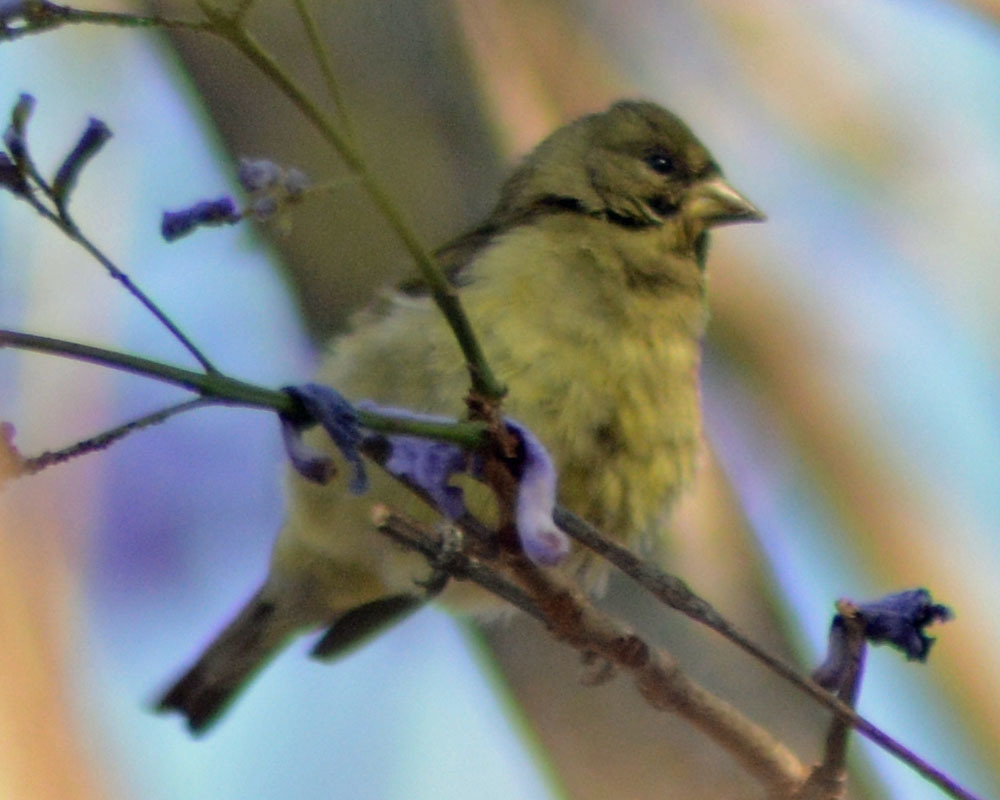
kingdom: Animalia
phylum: Chordata
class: Aves
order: Passeriformes
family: Fringillidae
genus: Spinus
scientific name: Spinus psaltria
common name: Lesser goldfinch
